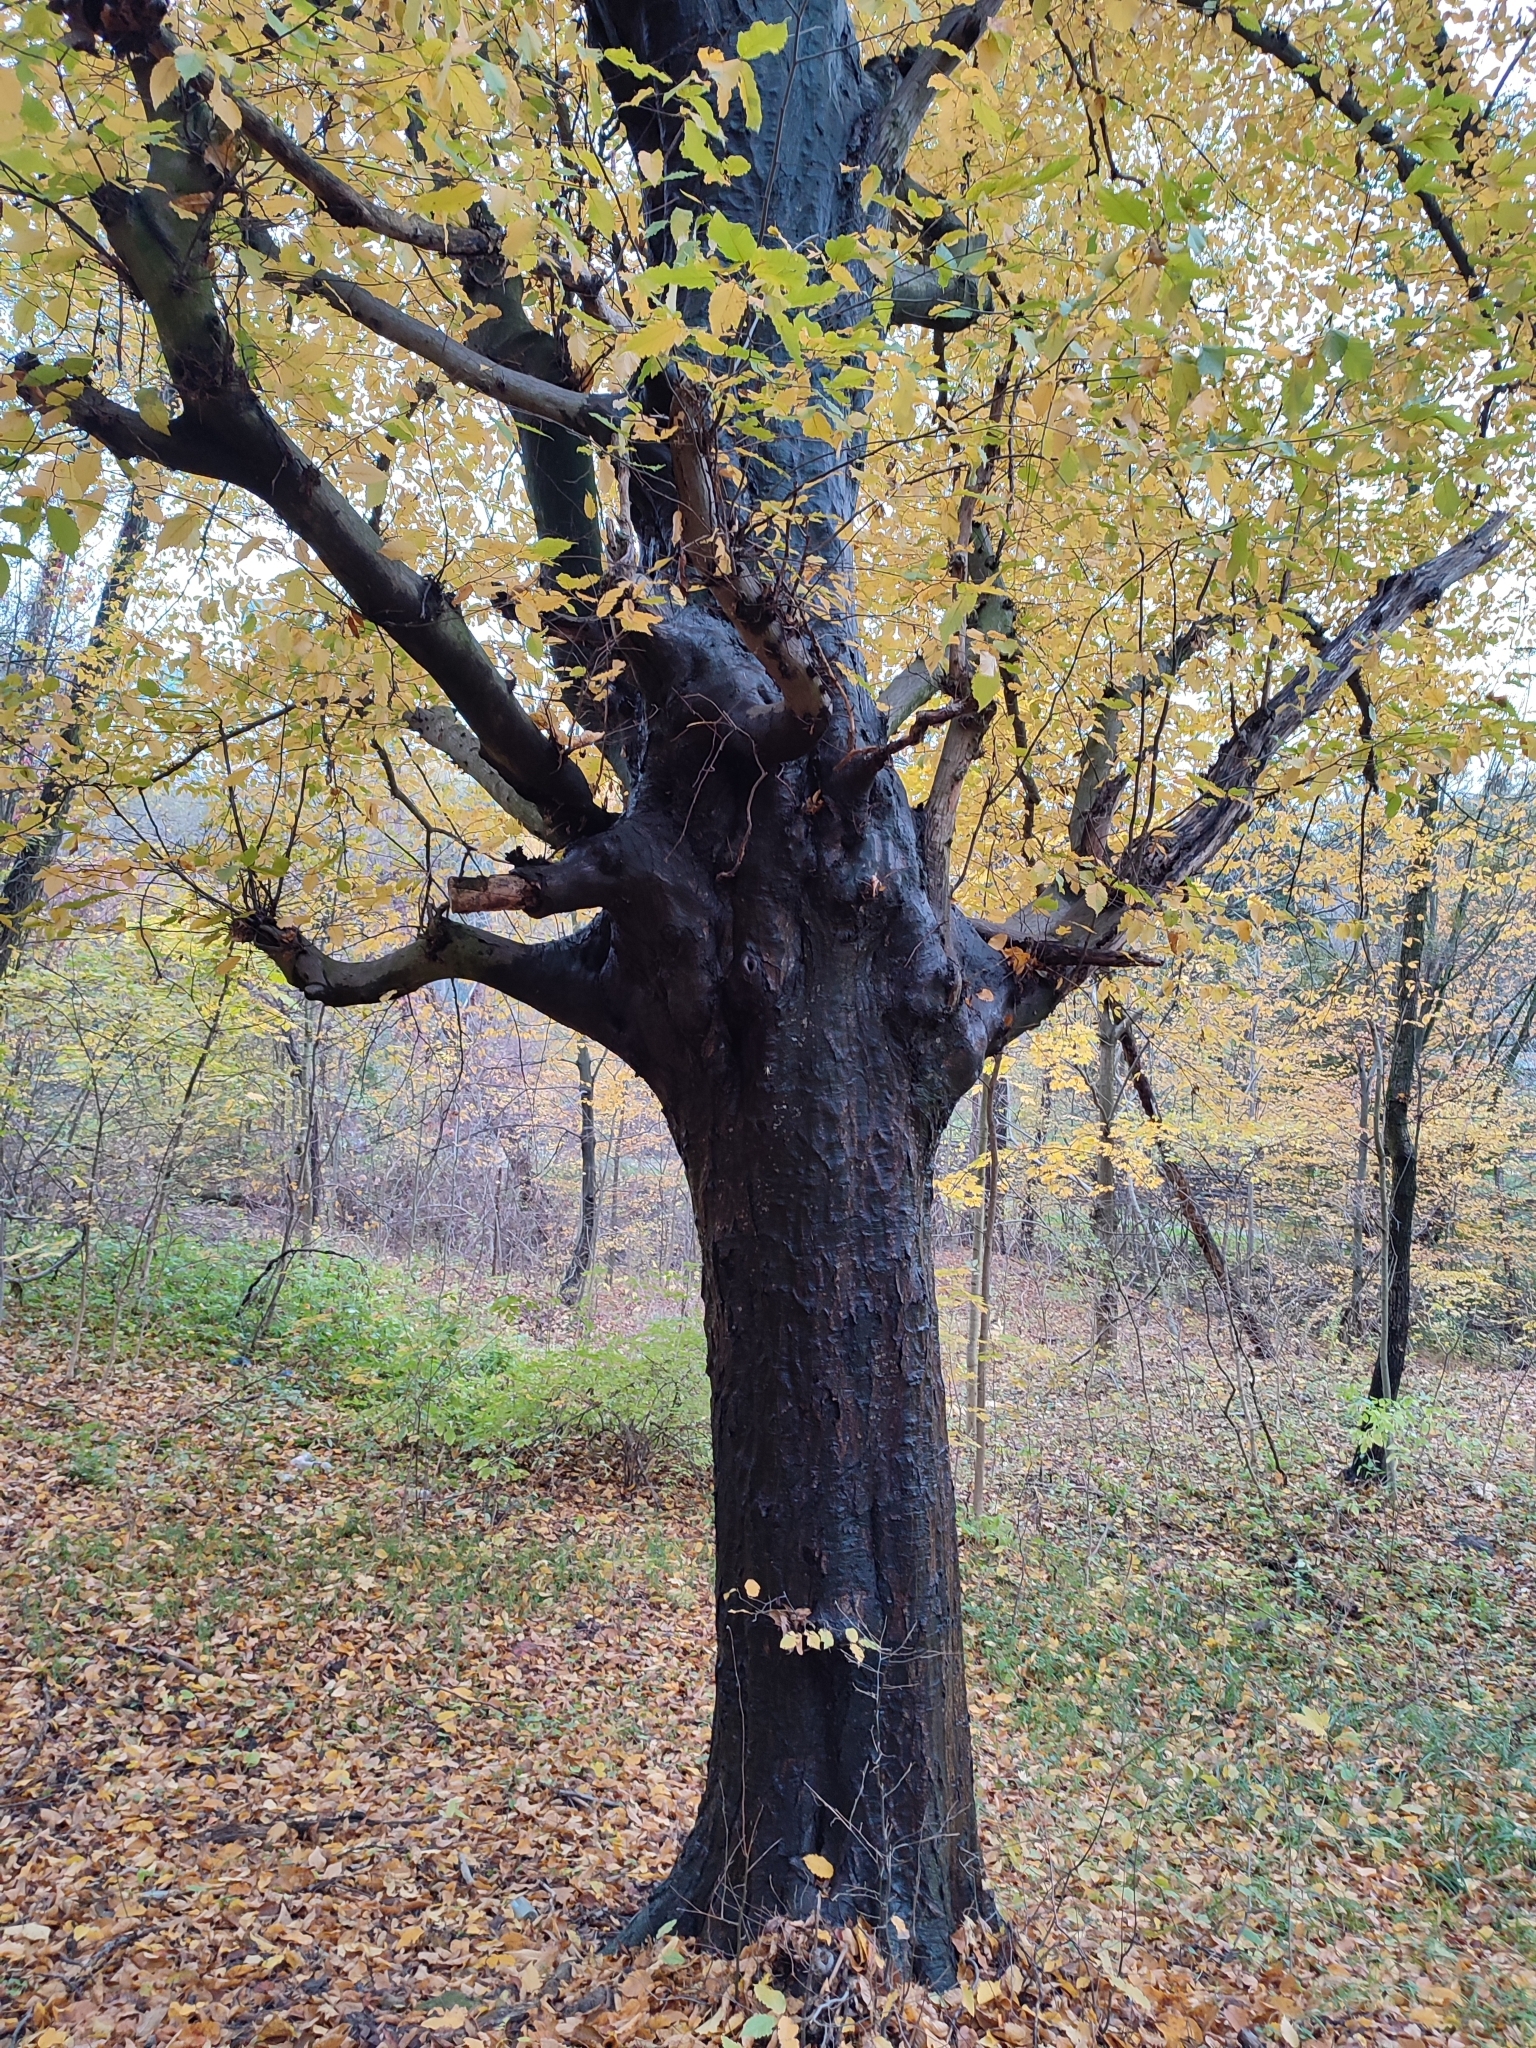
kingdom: Plantae
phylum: Tracheophyta
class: Magnoliopsida
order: Fagales
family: Betulaceae
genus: Carpinus
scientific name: Carpinus betulus
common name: Hornbeam
